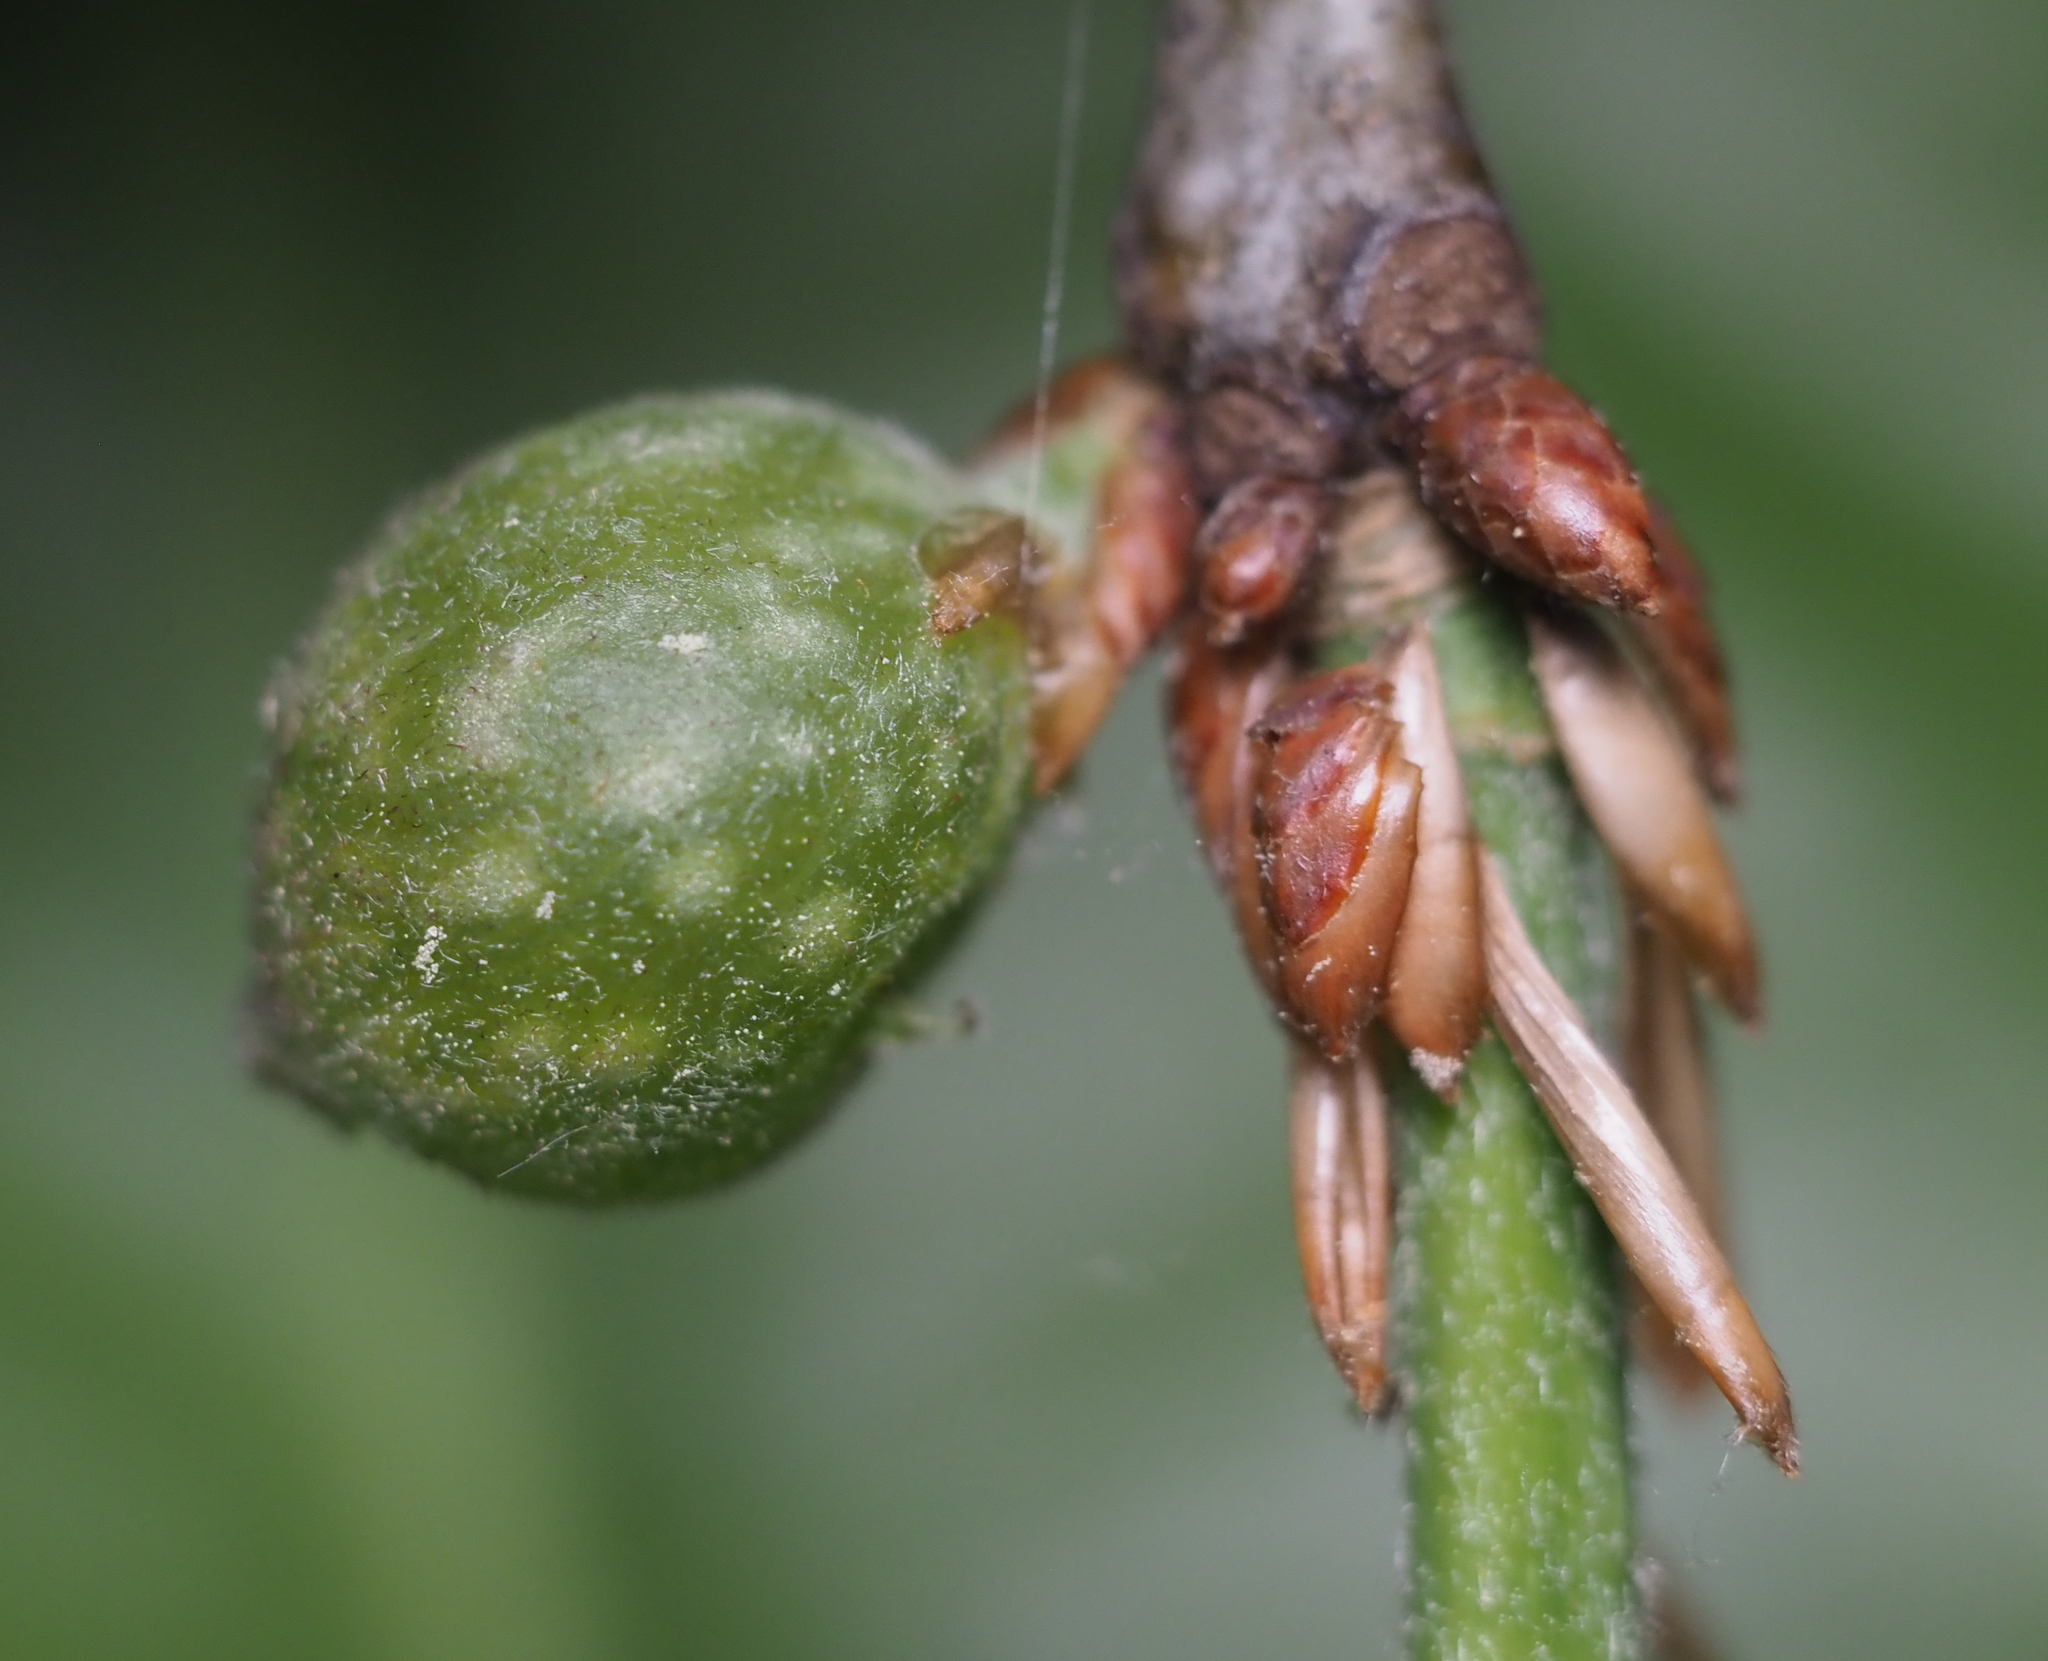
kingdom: Animalia
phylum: Arthropoda
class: Insecta
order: Hymenoptera
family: Cynipidae
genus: Dryocosmus
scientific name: Dryocosmus quercuspalustris
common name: Succulent oak gall wasp
